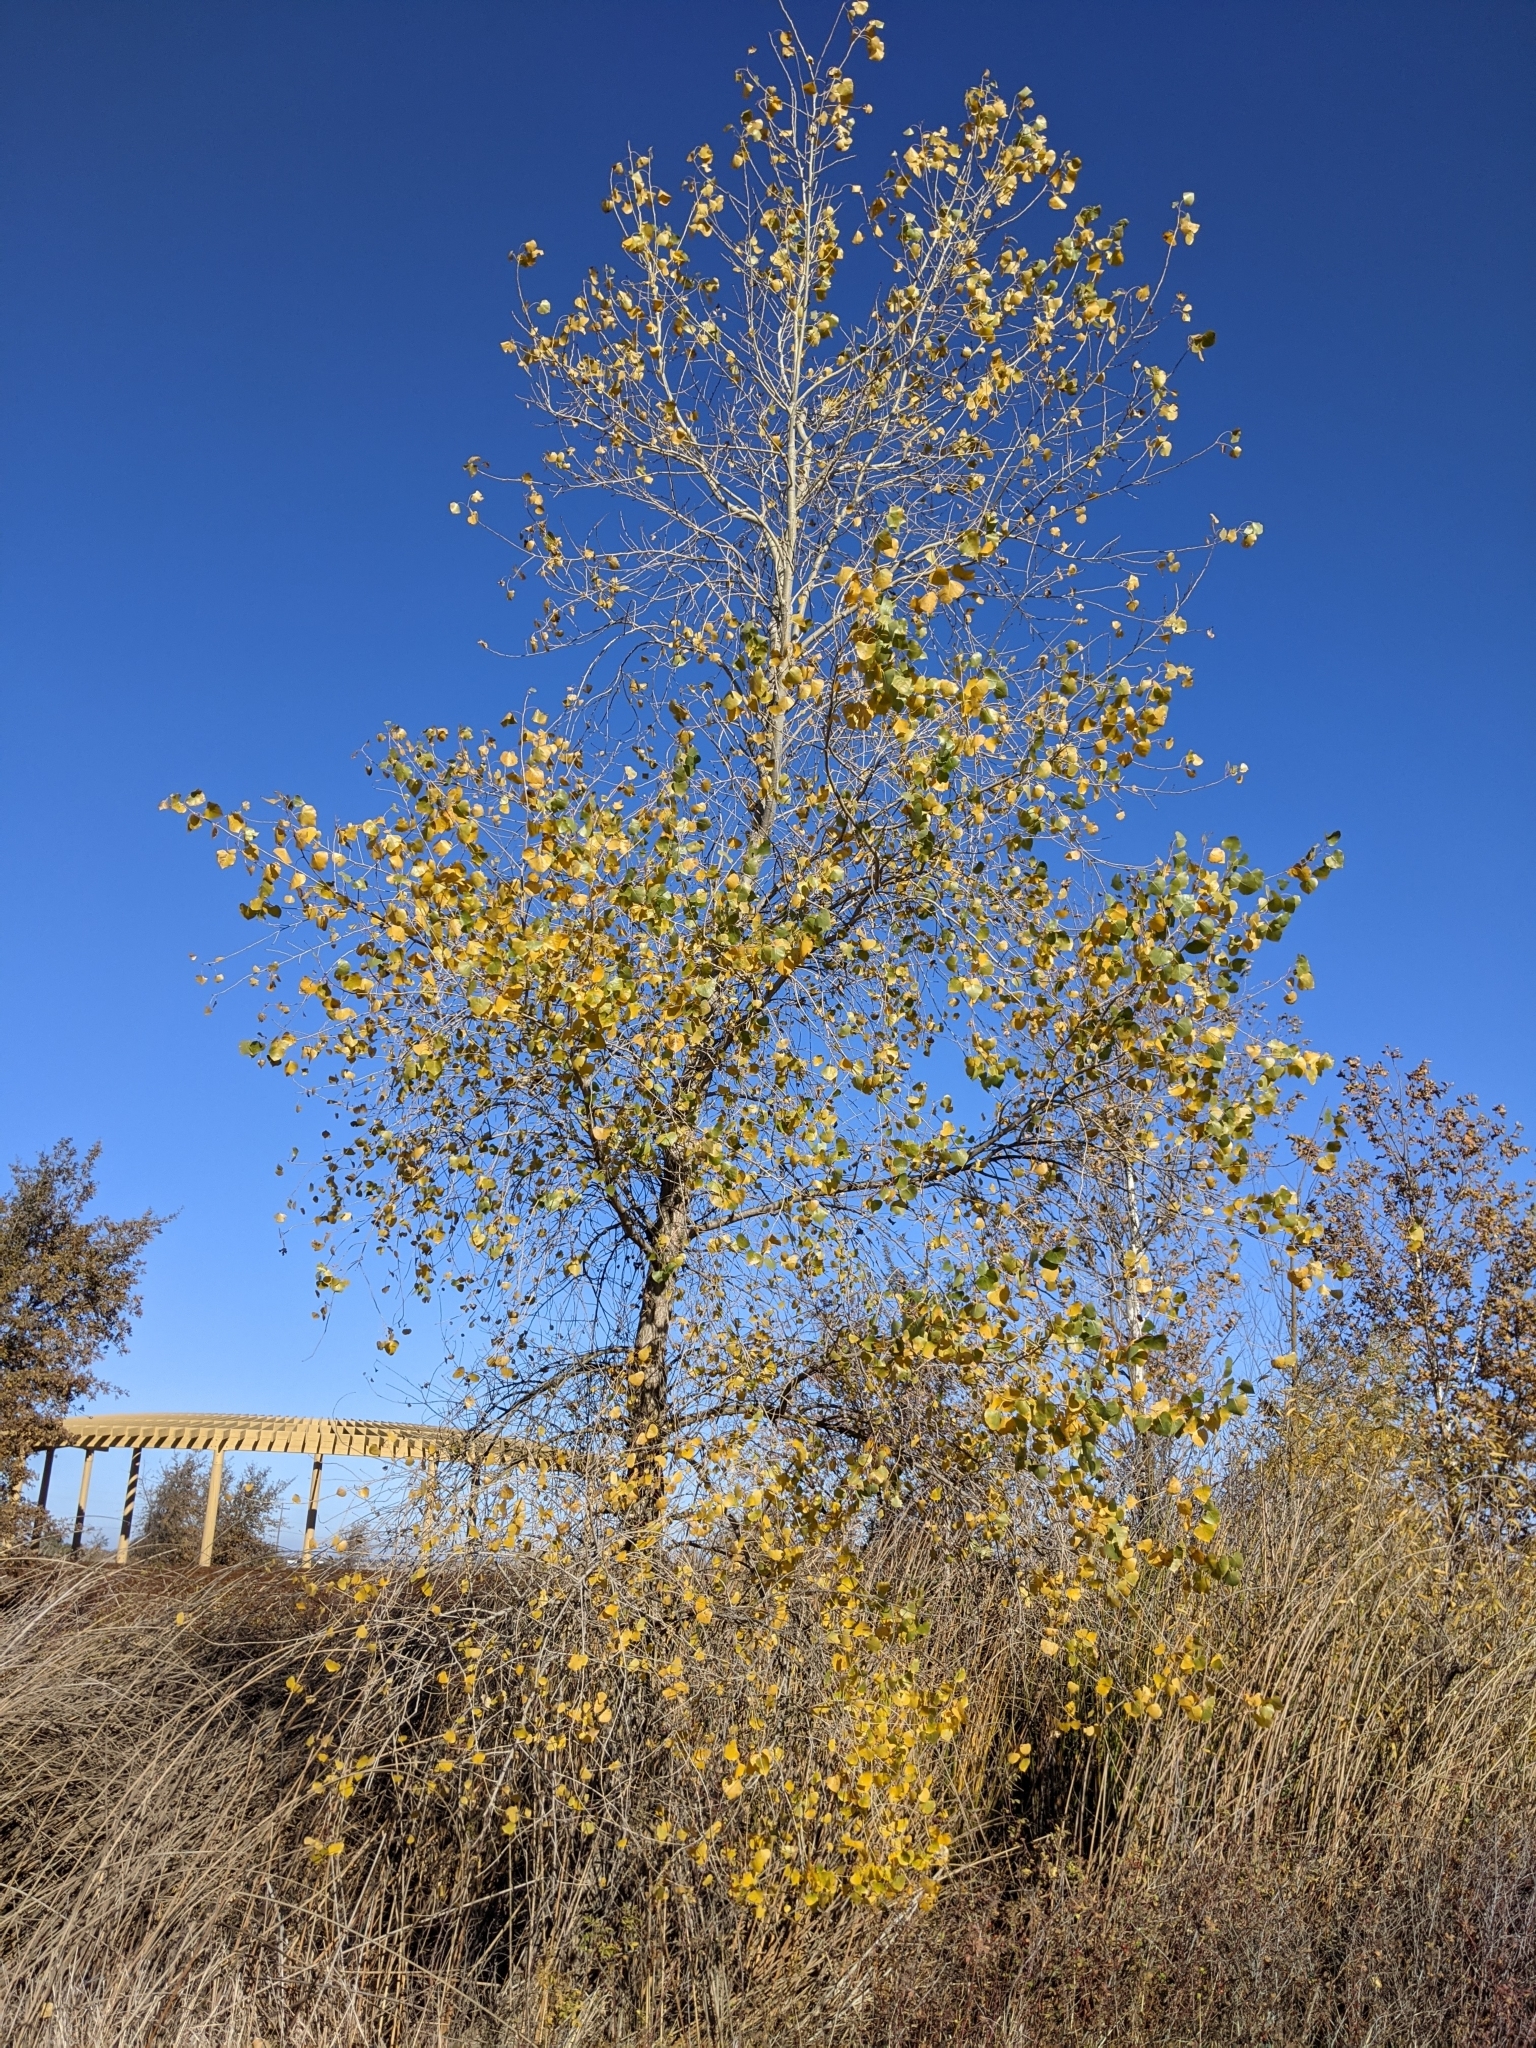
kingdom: Plantae
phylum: Tracheophyta
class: Magnoliopsida
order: Malpighiales
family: Salicaceae
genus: Populus
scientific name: Populus fremontii
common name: Fremont's cottonwood
